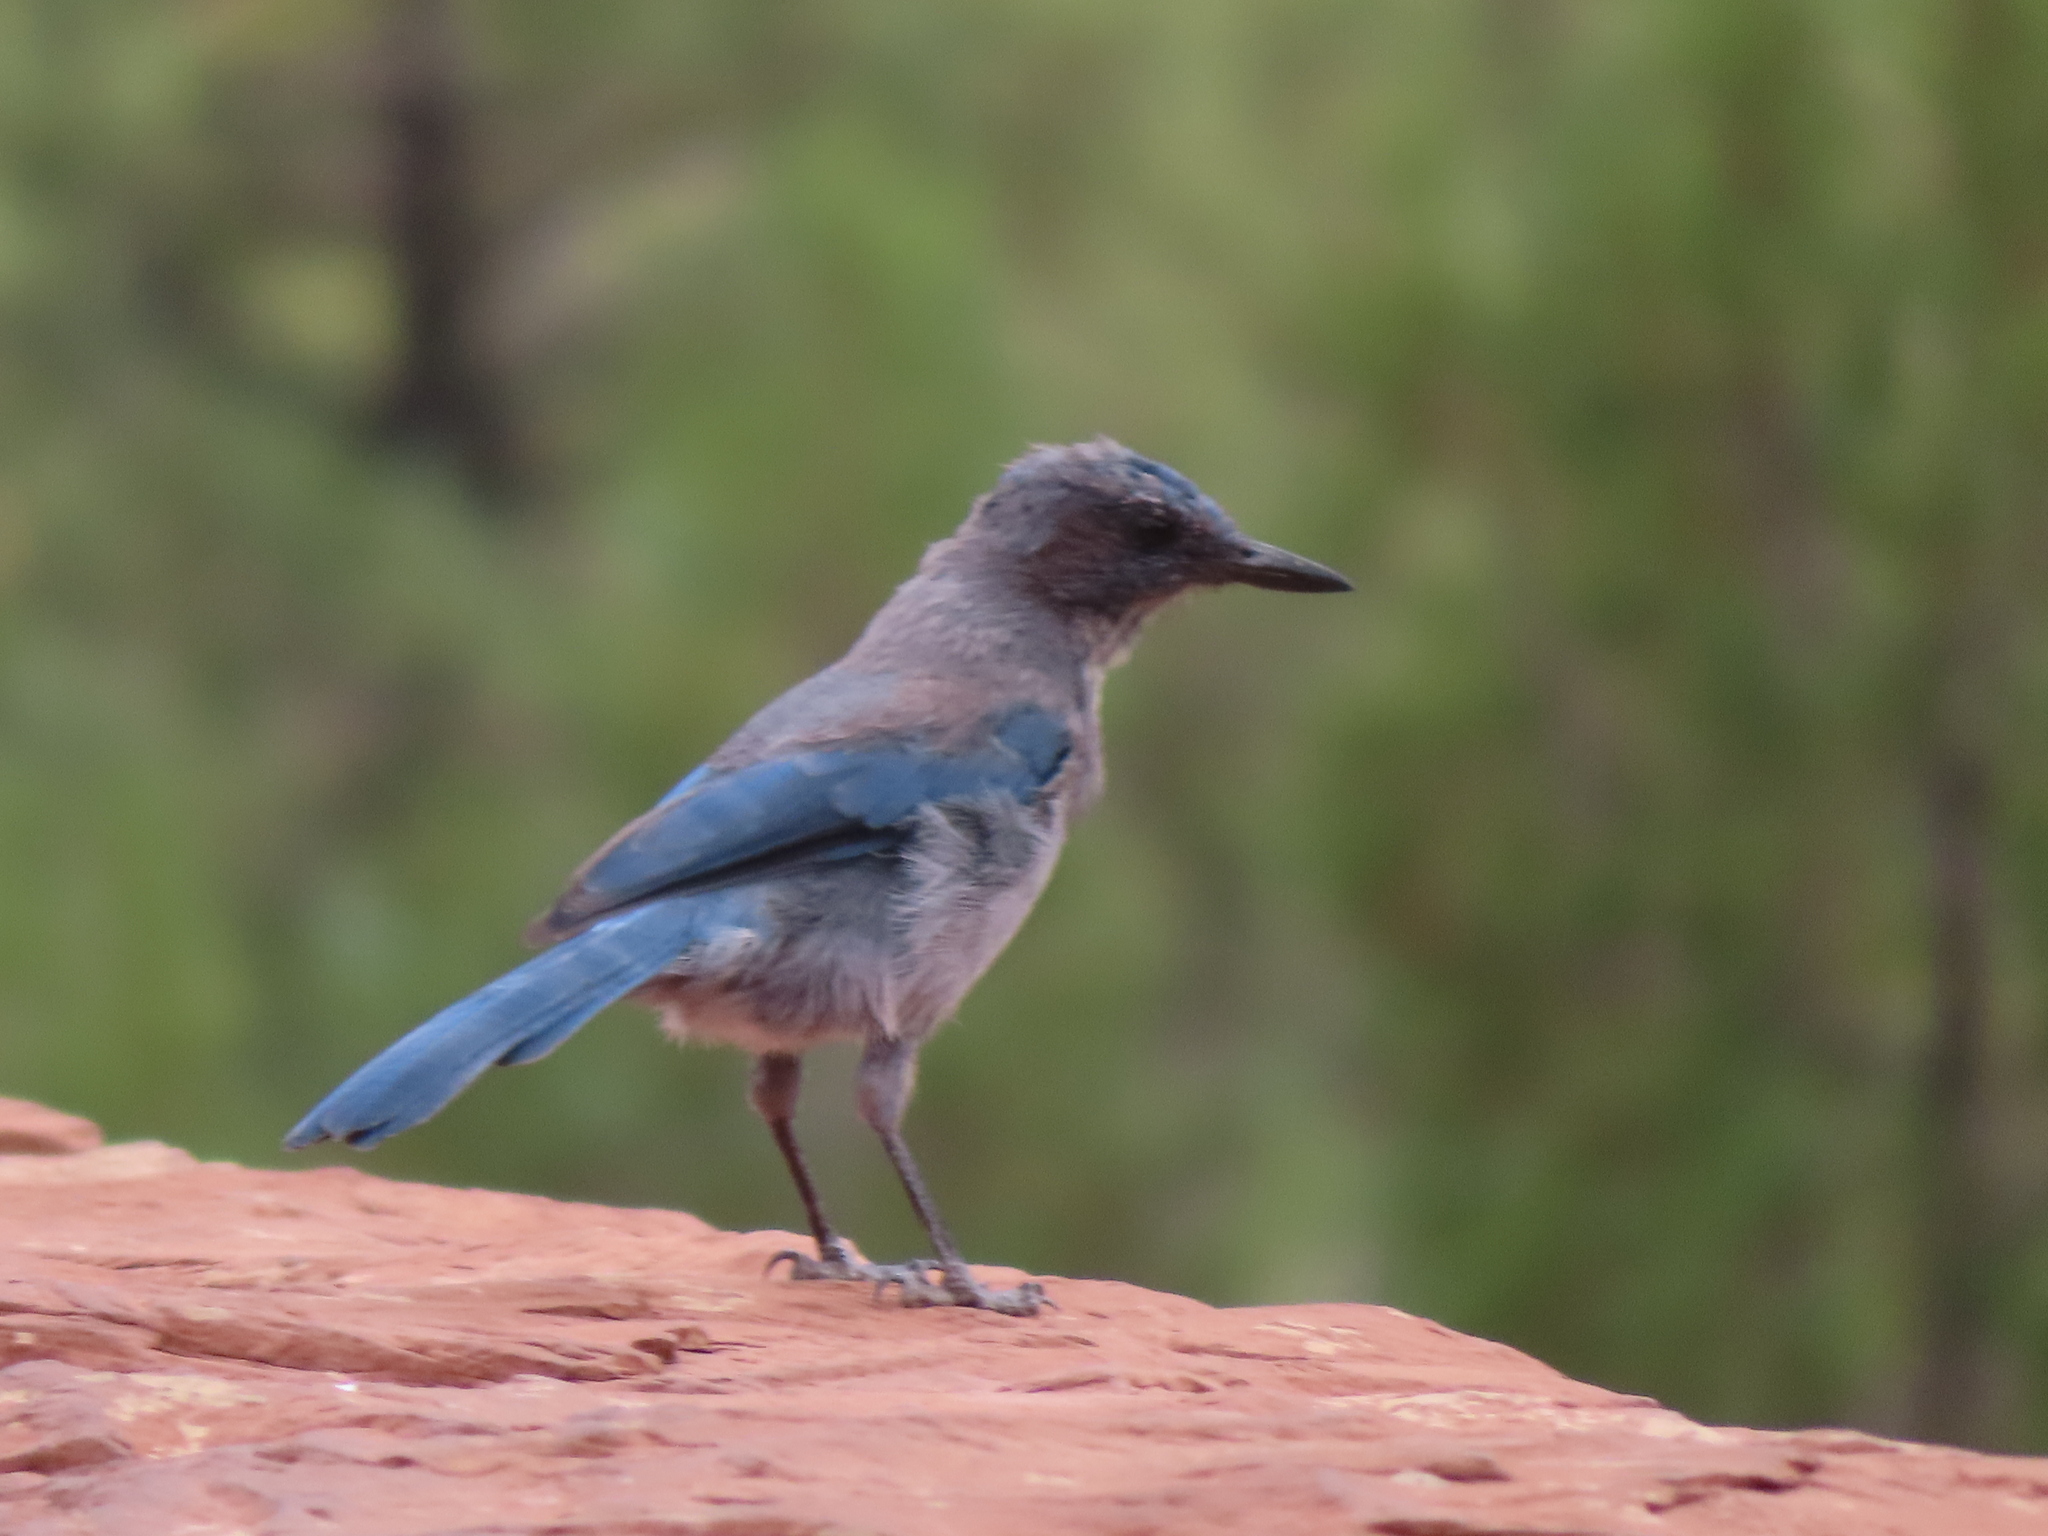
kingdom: Animalia
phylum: Chordata
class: Aves
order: Passeriformes
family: Corvidae
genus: Aphelocoma
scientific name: Aphelocoma woodhouseii
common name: Woodhouse's scrub-jay
